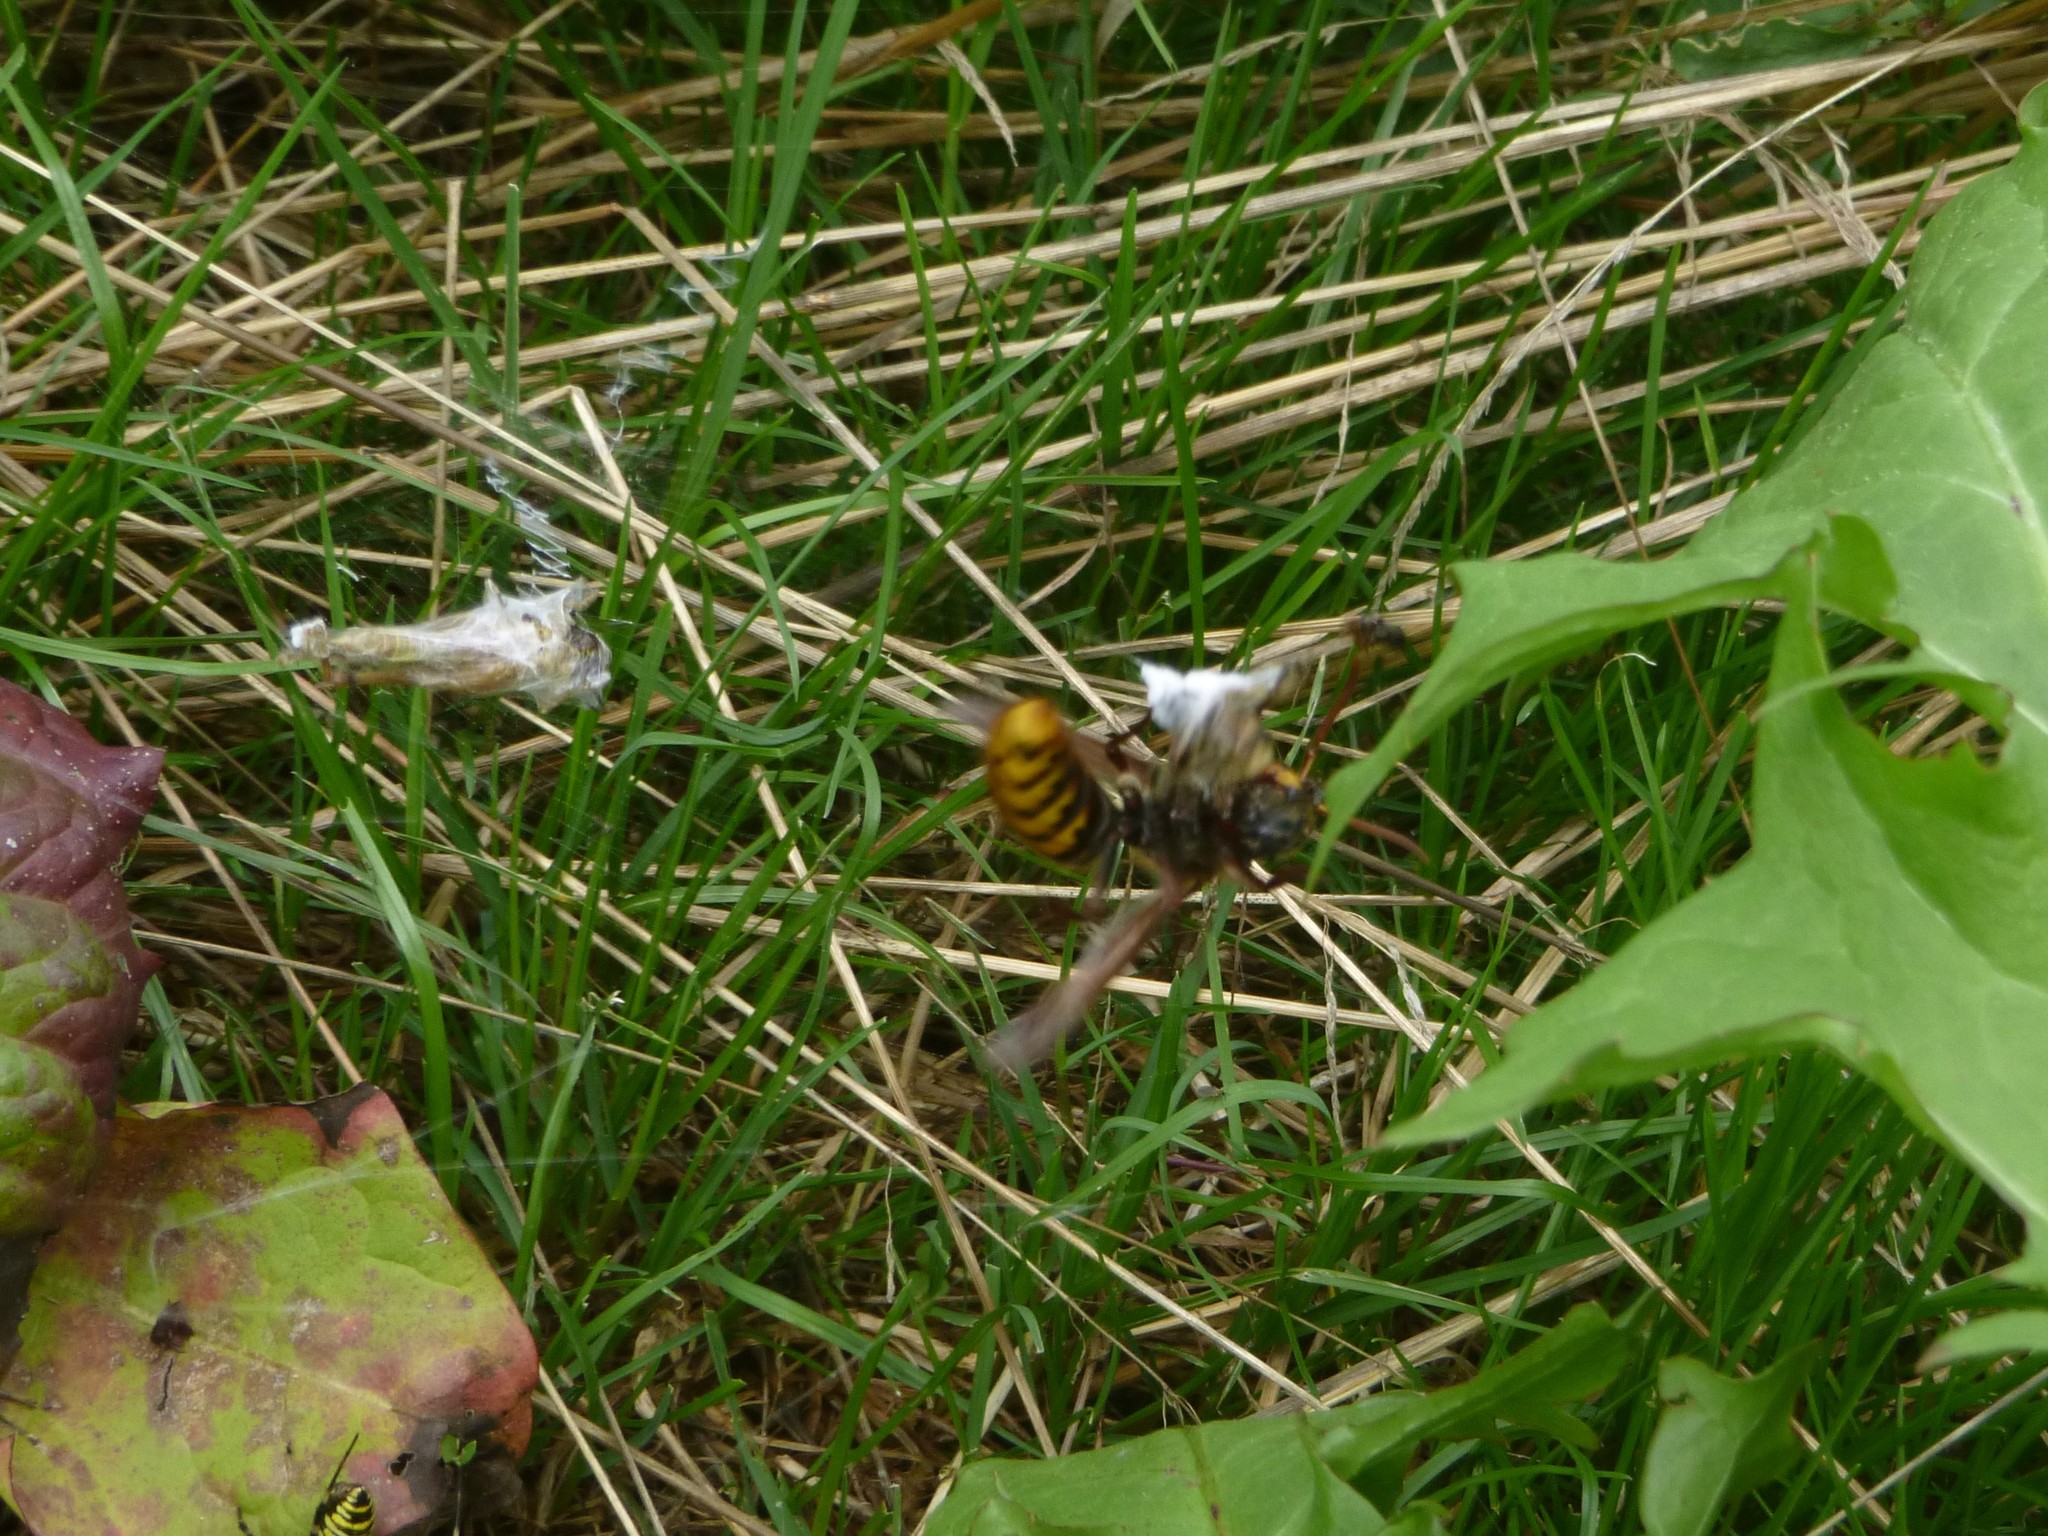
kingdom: Animalia
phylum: Arthropoda
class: Insecta
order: Hymenoptera
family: Vespidae
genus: Vespa
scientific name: Vespa crabro
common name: Hornet
